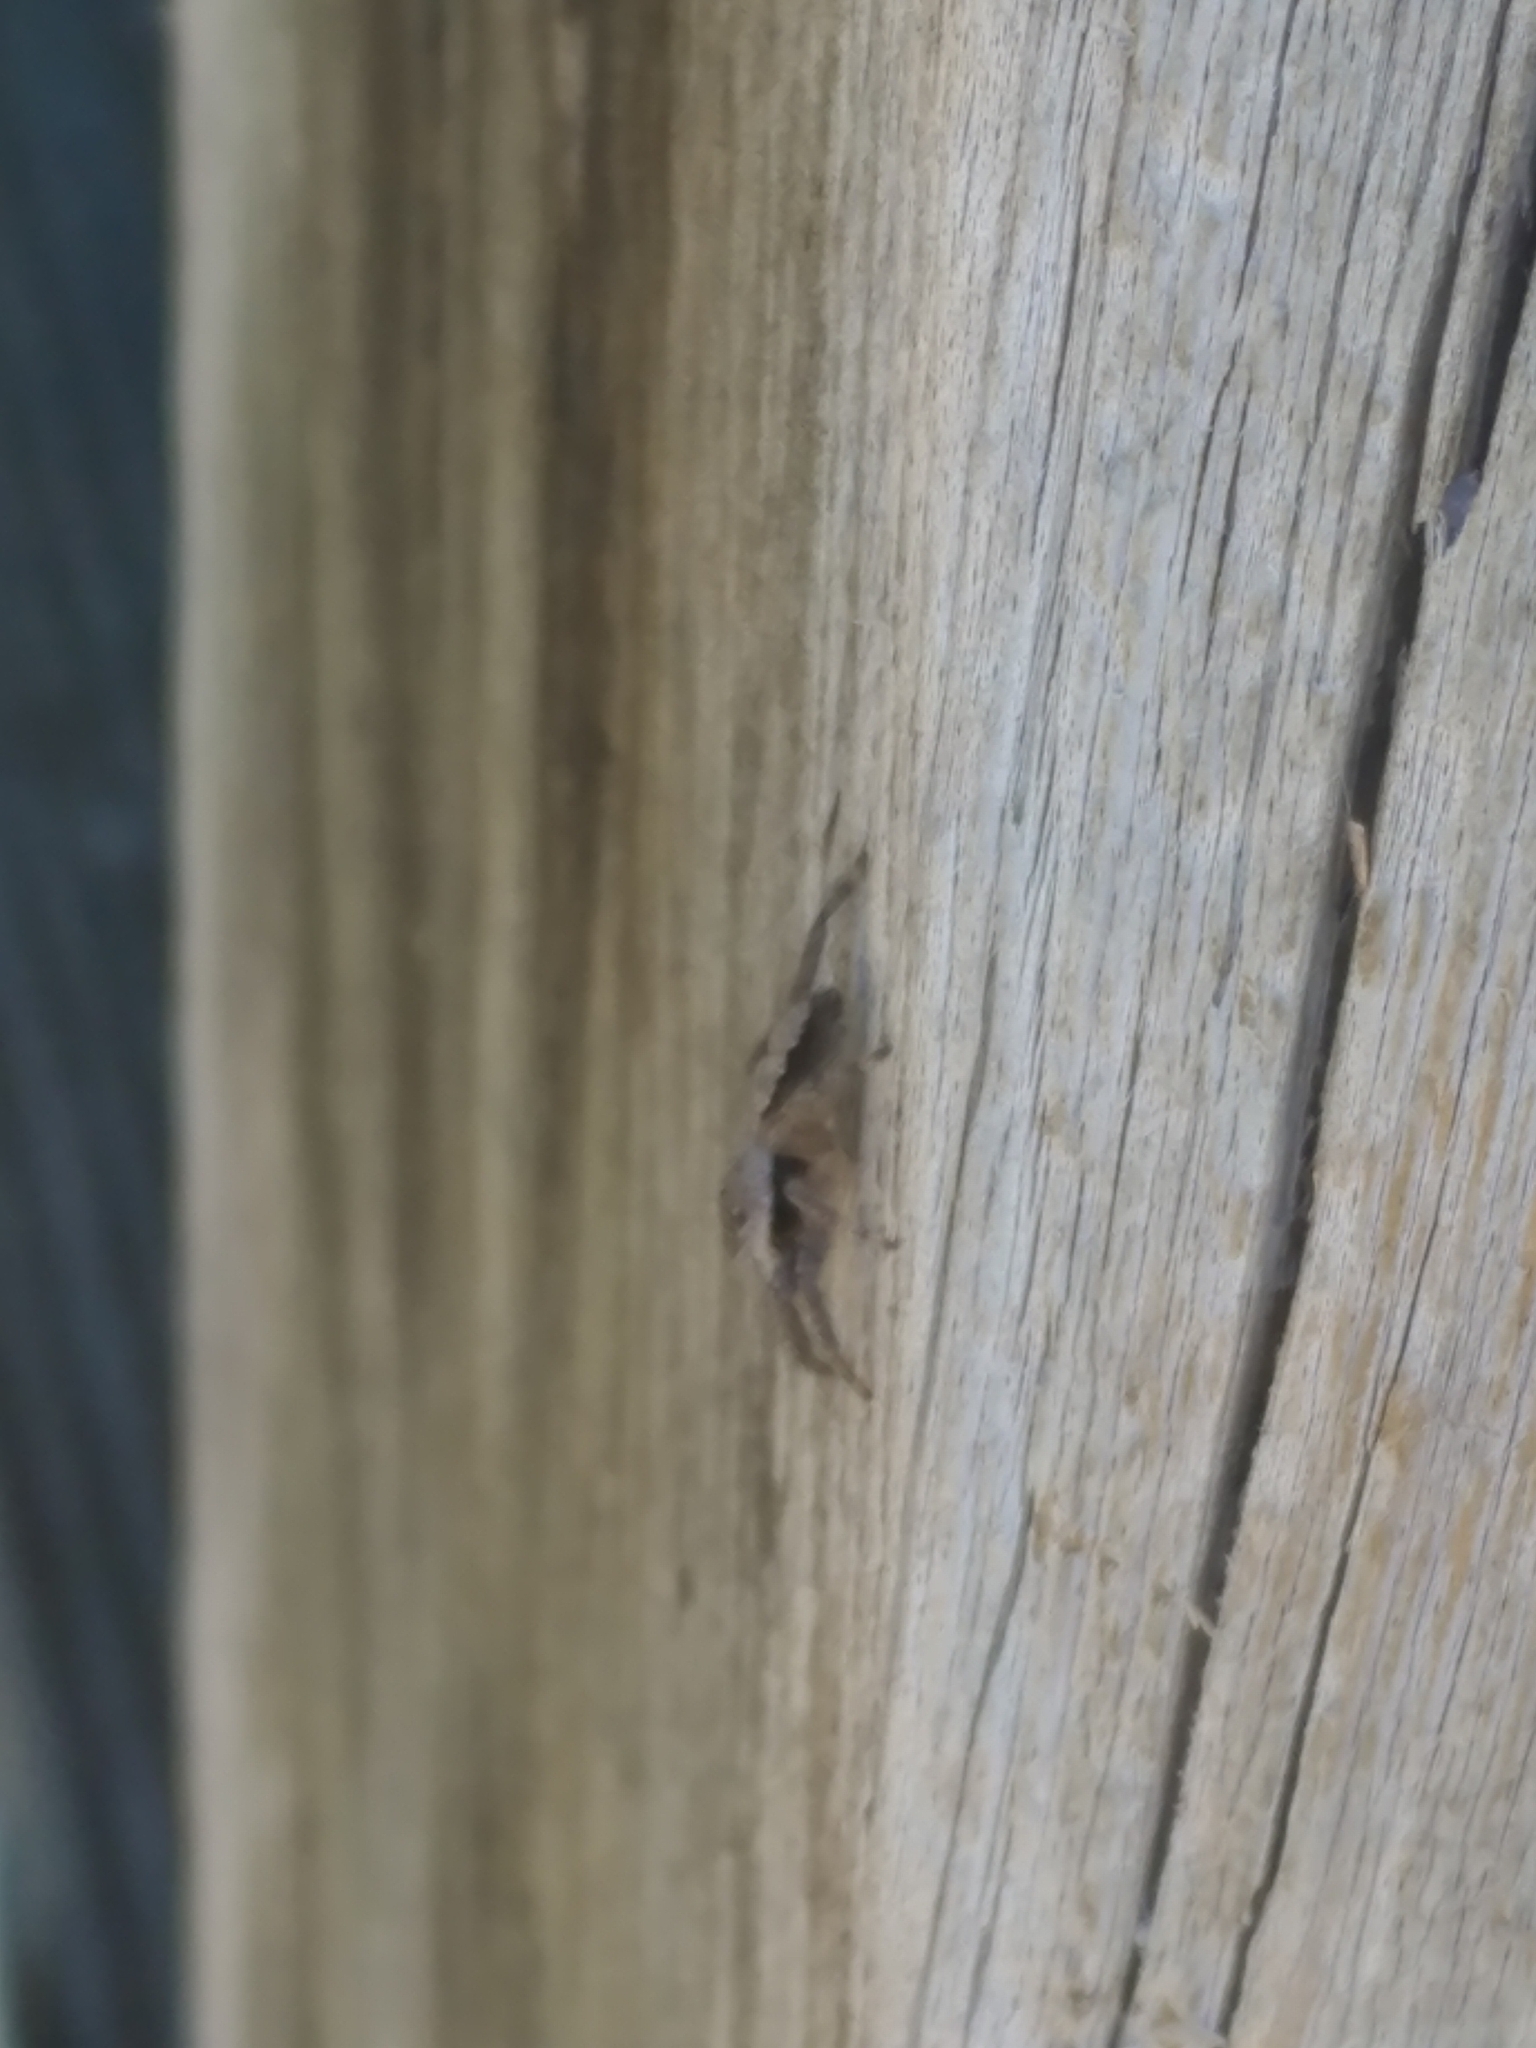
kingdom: Animalia
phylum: Arthropoda
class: Arachnida
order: Araneae
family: Salticidae
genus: Platycryptus
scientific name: Platycryptus undatus
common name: Tan jumping spider
